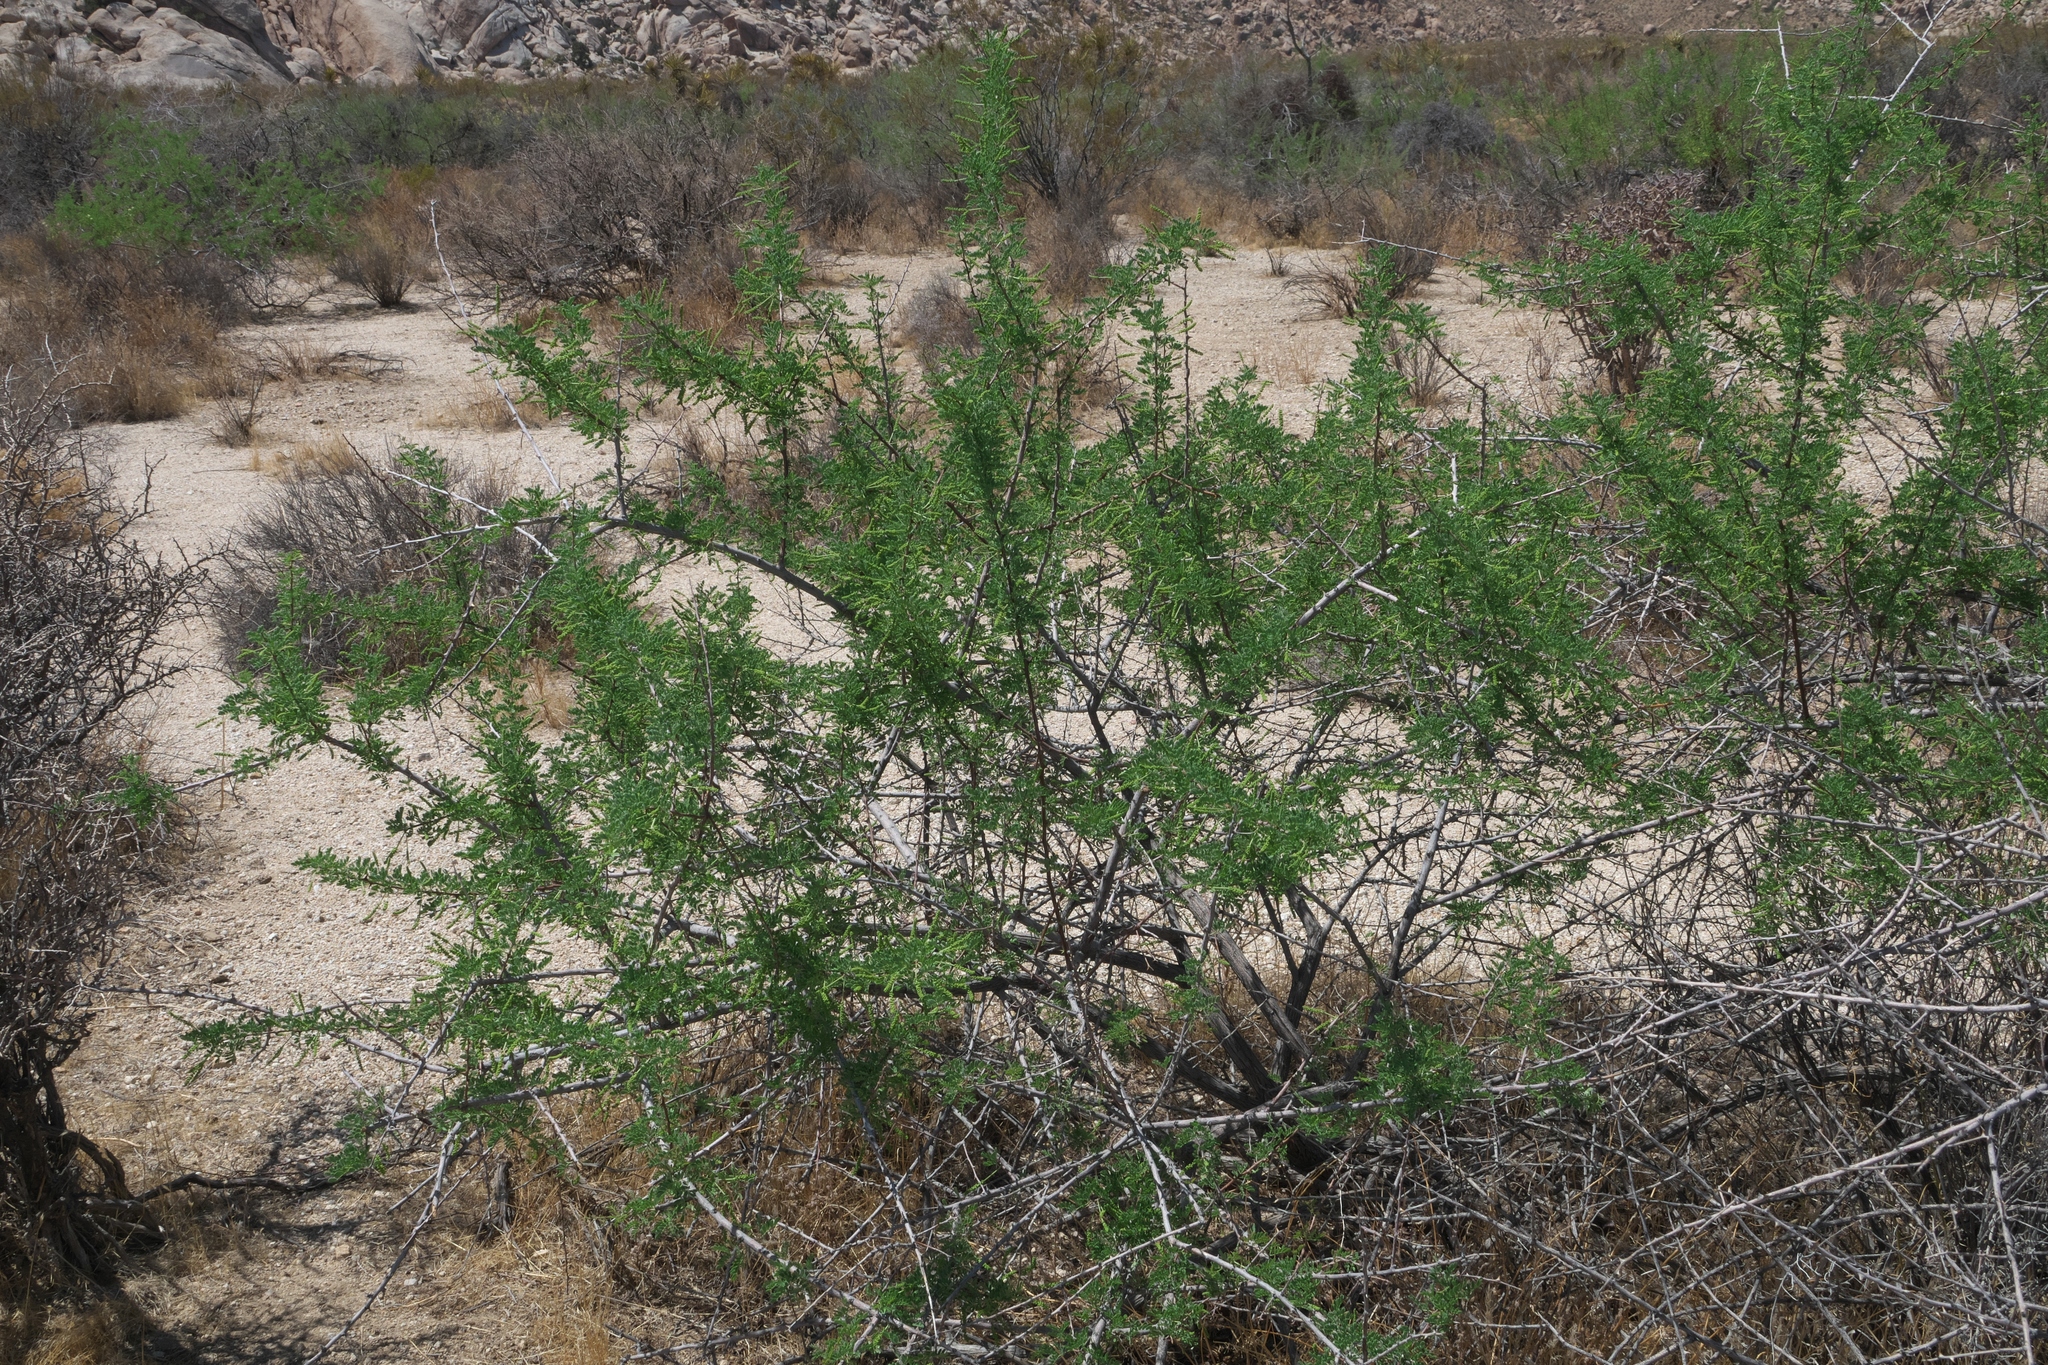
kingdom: Plantae
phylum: Tracheophyta
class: Magnoliopsida
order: Fabales
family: Fabaceae
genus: Senegalia
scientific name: Senegalia greggii
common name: Texas-mimosa
